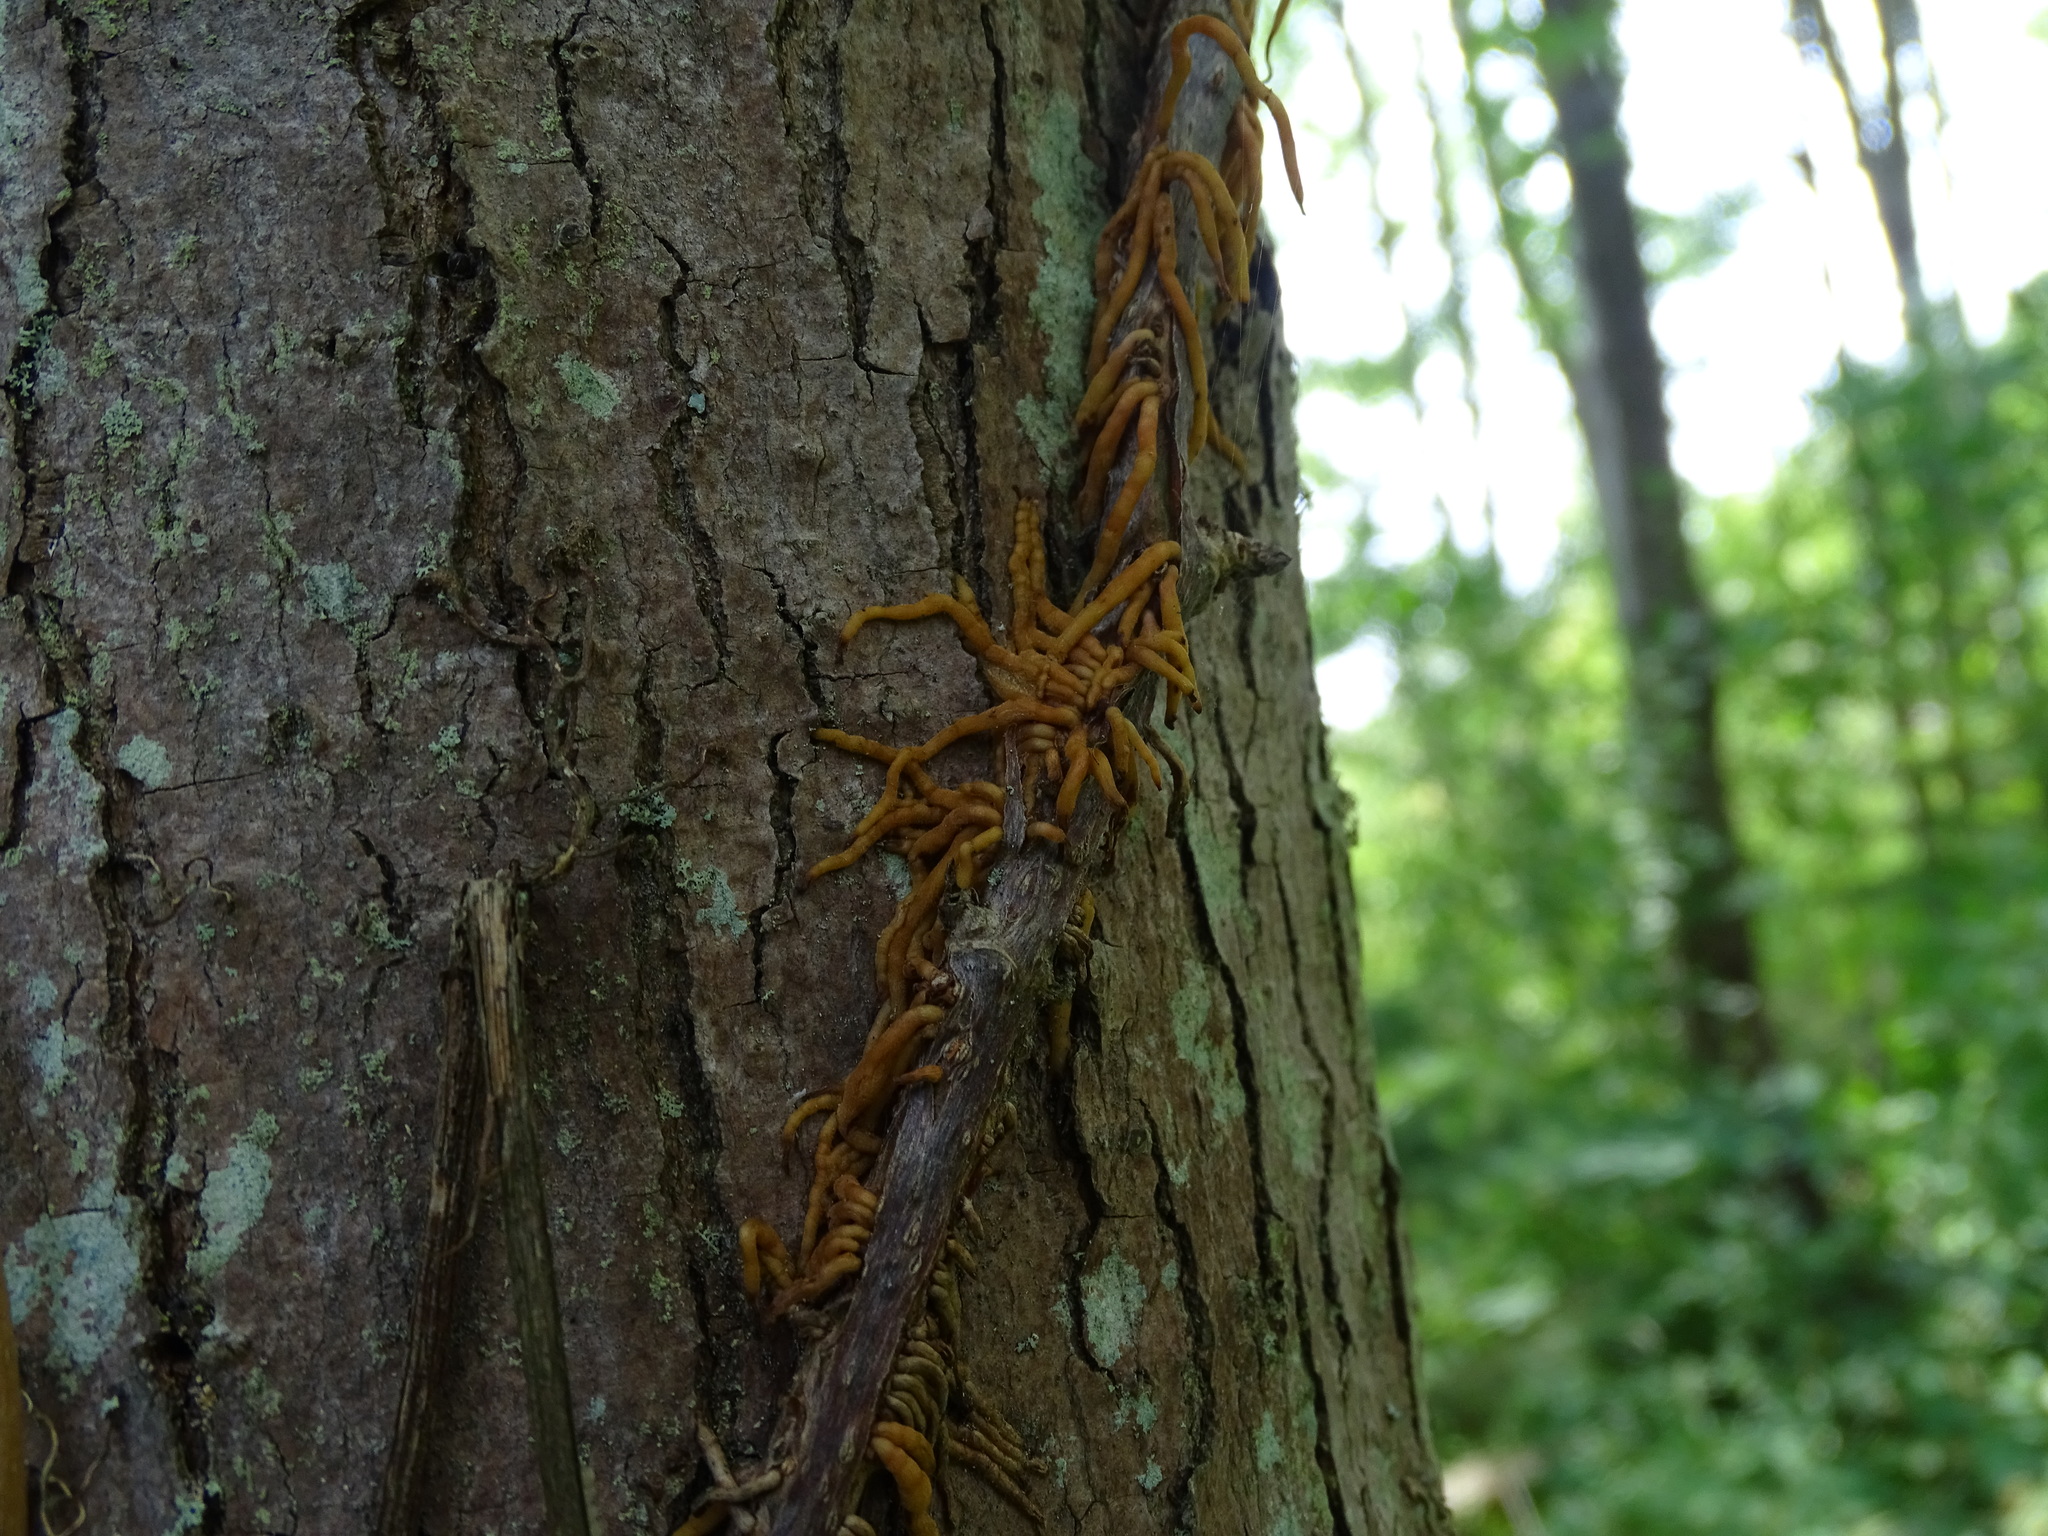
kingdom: Plantae
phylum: Tracheophyta
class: Magnoliopsida
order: Vitales
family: Vitaceae
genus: Parthenocissus
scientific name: Parthenocissus quinquefolia
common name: Virginia-creeper
